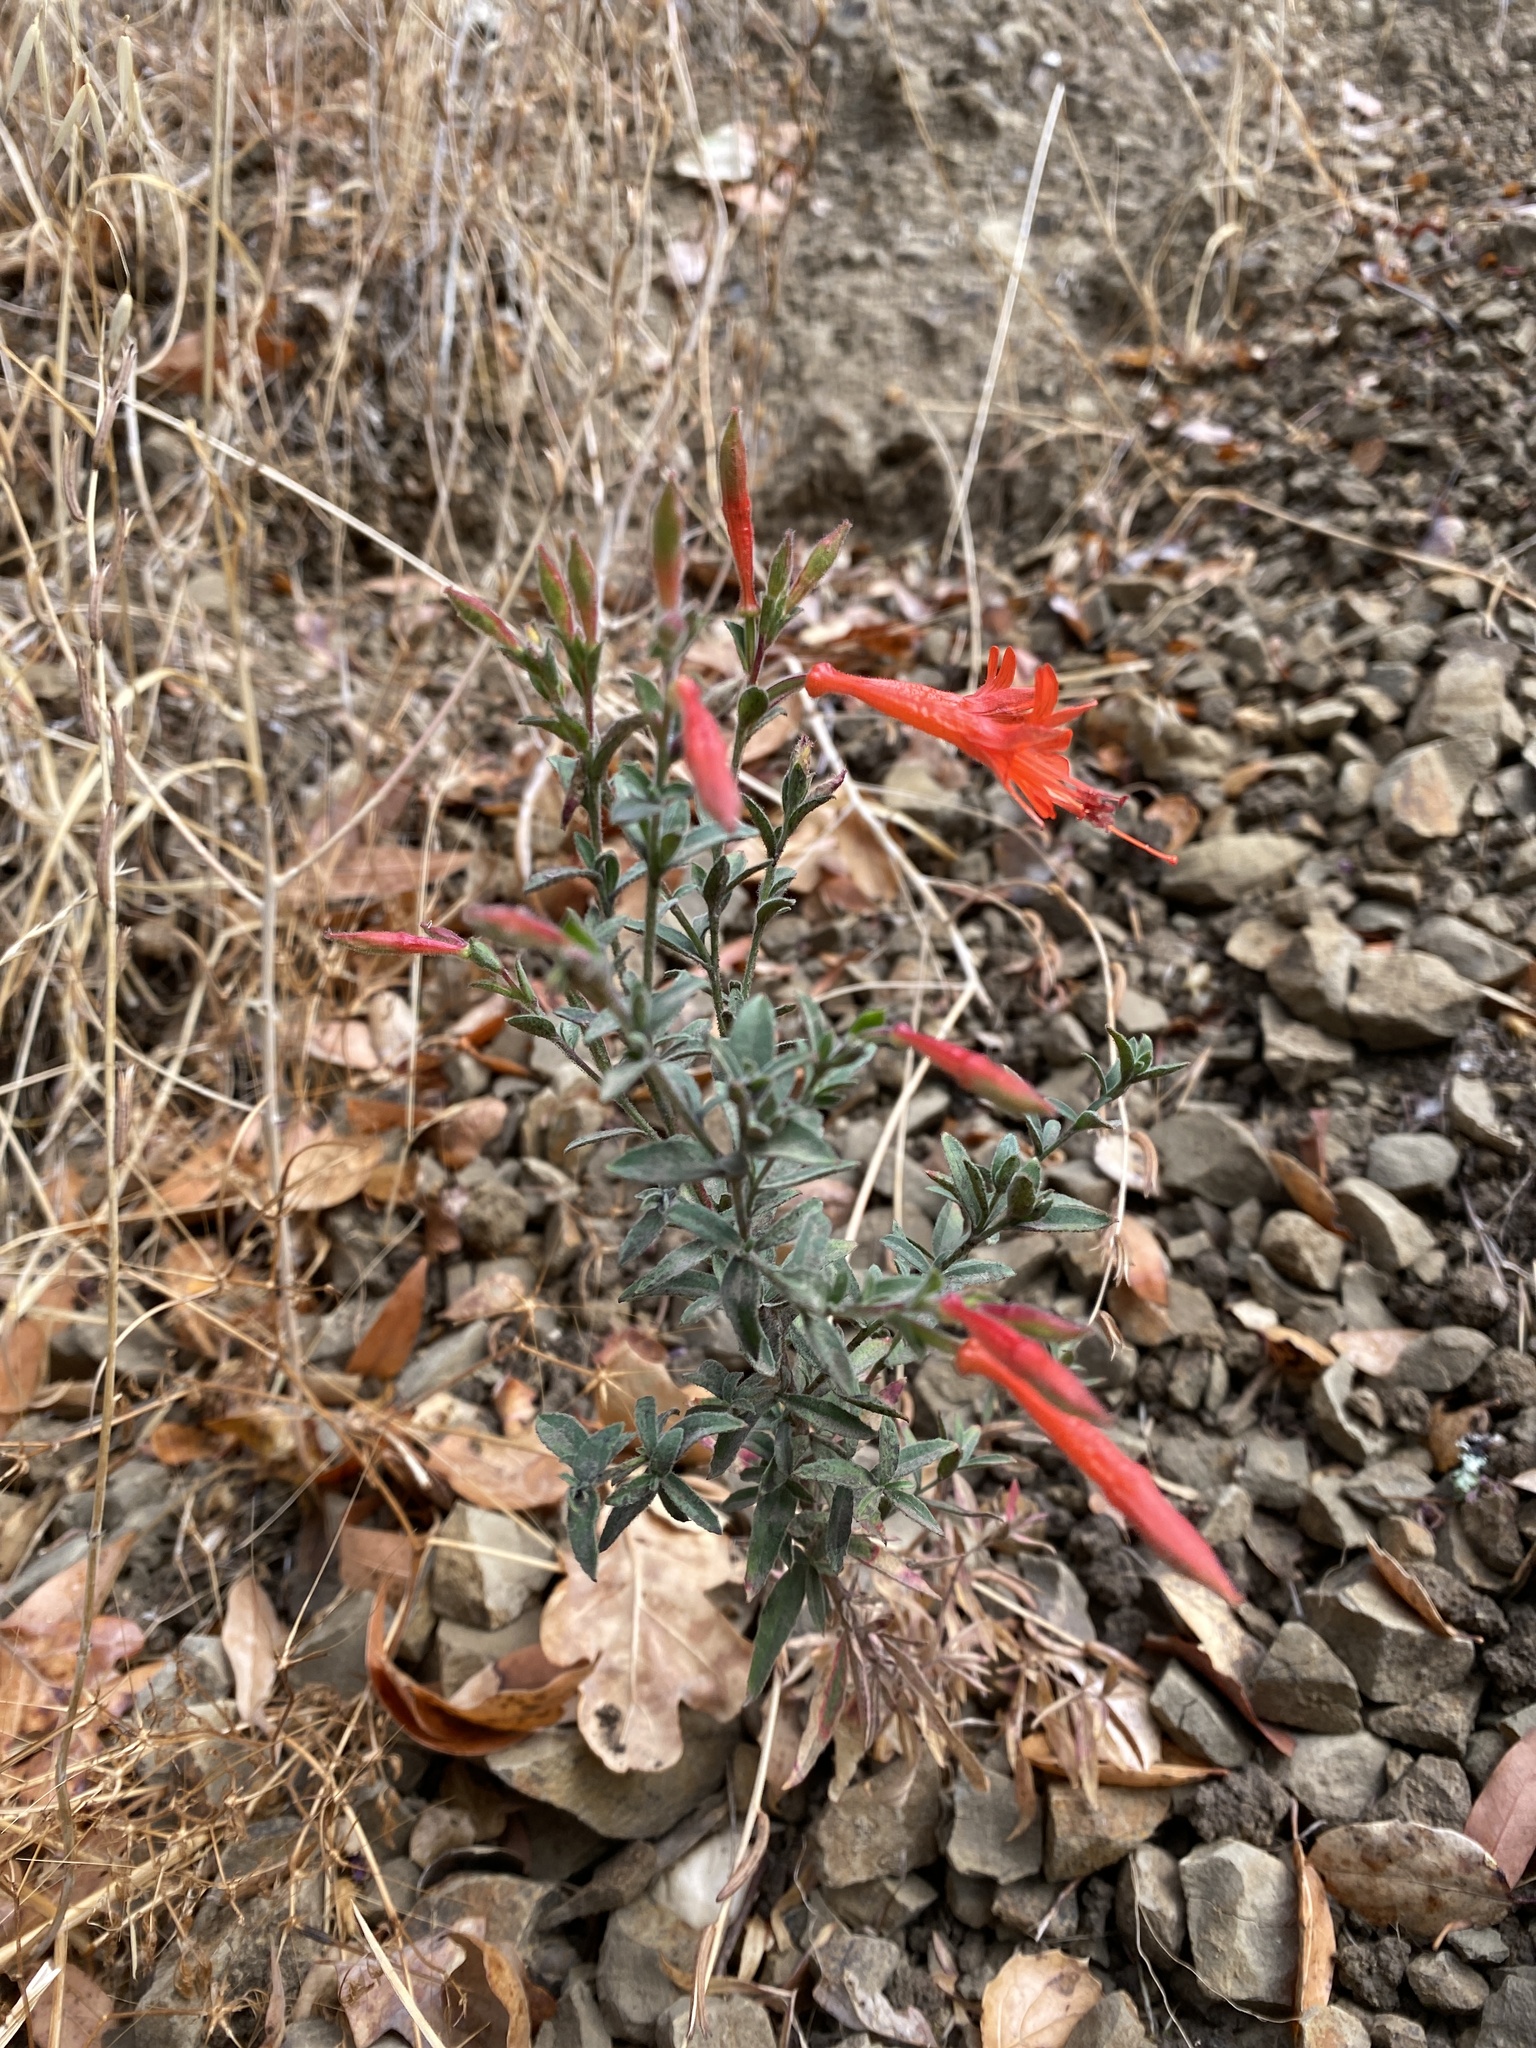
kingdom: Plantae
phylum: Tracheophyta
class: Magnoliopsida
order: Myrtales
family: Onagraceae
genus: Epilobium
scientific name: Epilobium canum
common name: California-fuchsia
